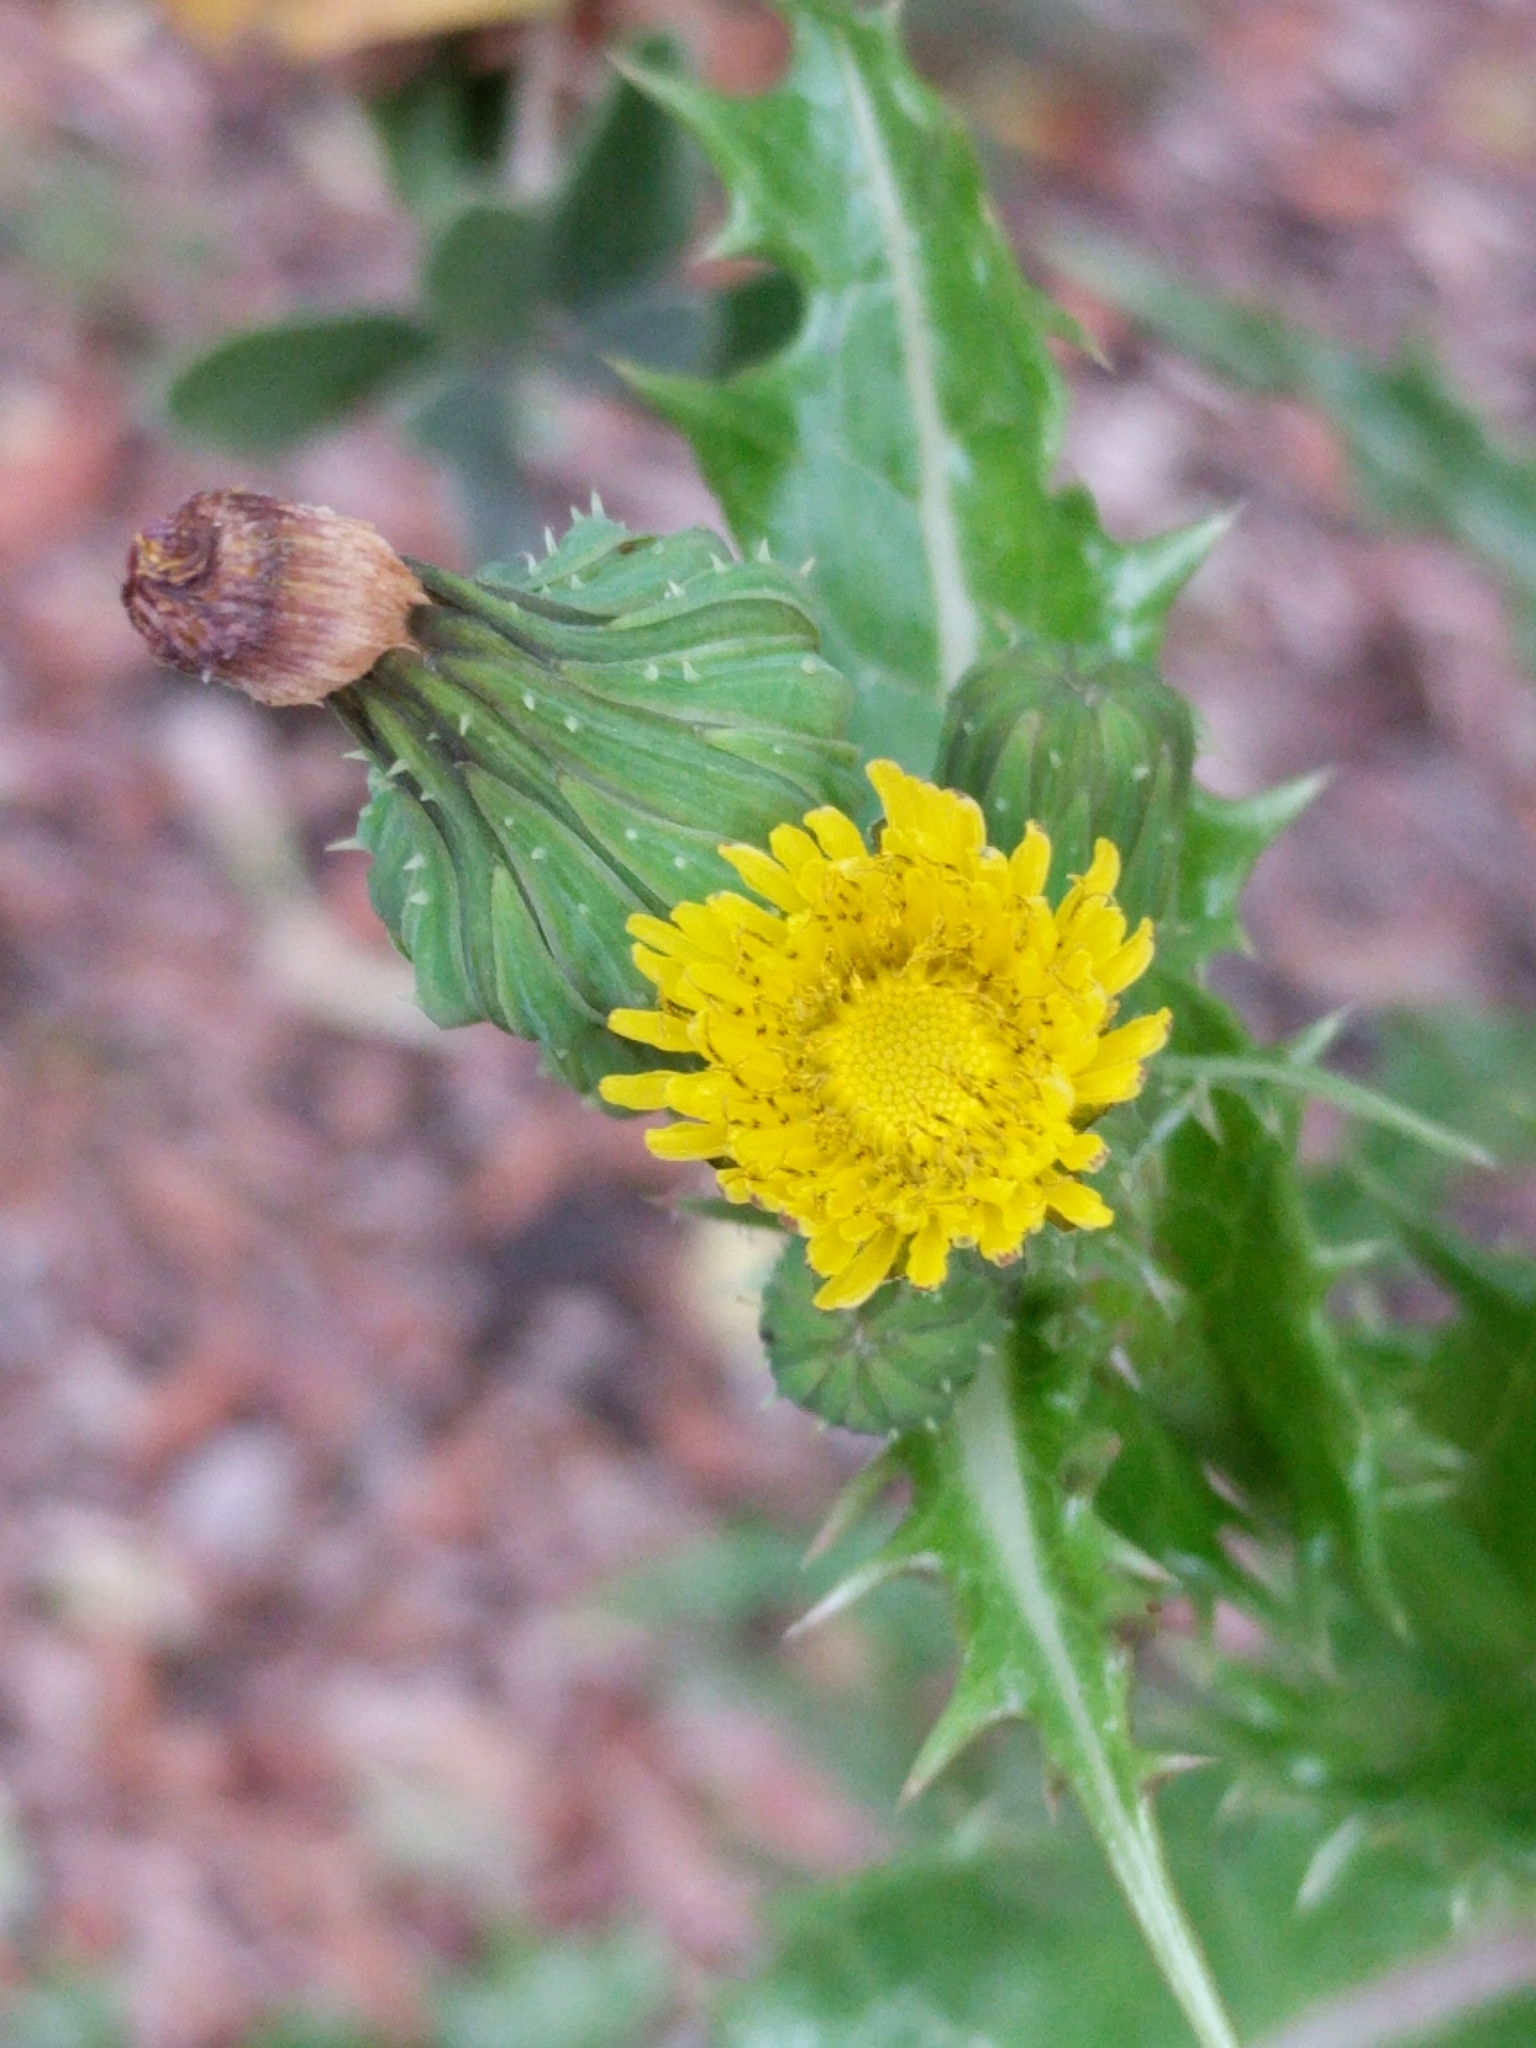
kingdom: Plantae
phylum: Tracheophyta
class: Magnoliopsida
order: Asterales
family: Asteraceae
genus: Sonchus
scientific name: Sonchus asper
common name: Prickly sow-thistle
